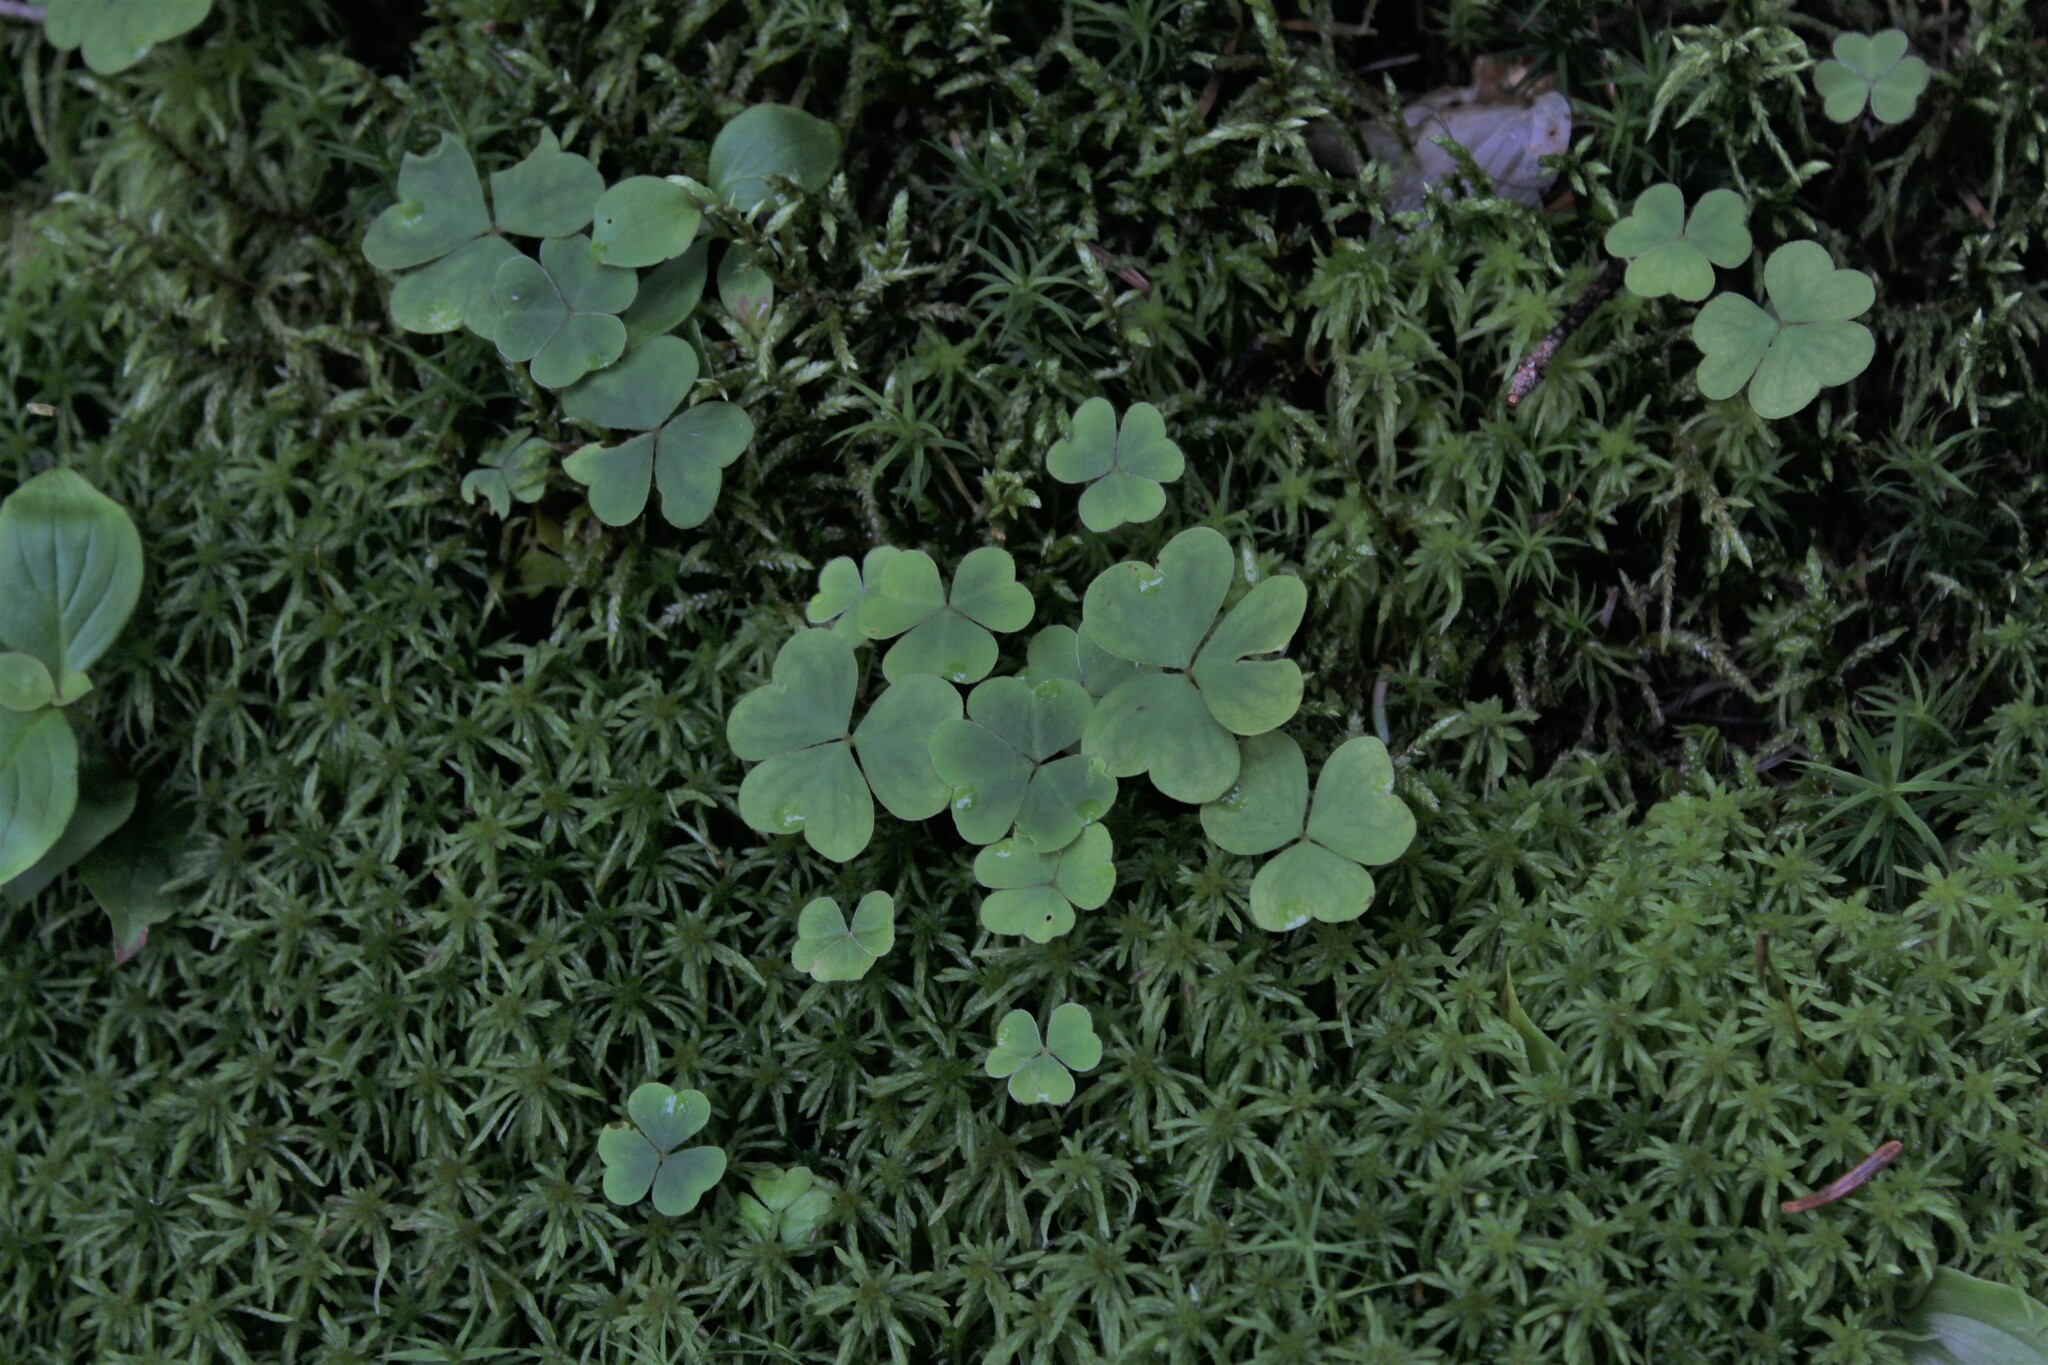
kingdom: Plantae
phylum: Tracheophyta
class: Magnoliopsida
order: Oxalidales
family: Oxalidaceae
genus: Oxalis
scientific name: Oxalis montana
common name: American wood-sorrel
